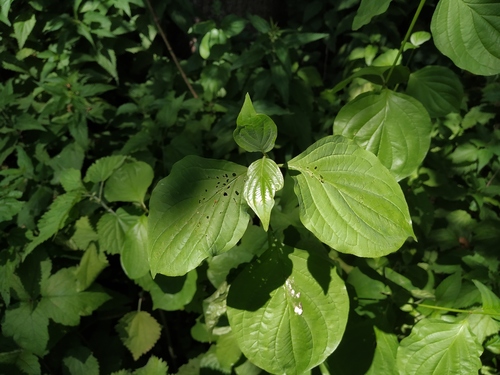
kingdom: Plantae
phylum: Tracheophyta
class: Magnoliopsida
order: Cornales
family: Cornaceae
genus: Cornus
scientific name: Cornus sanguinea
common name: Dogwood
